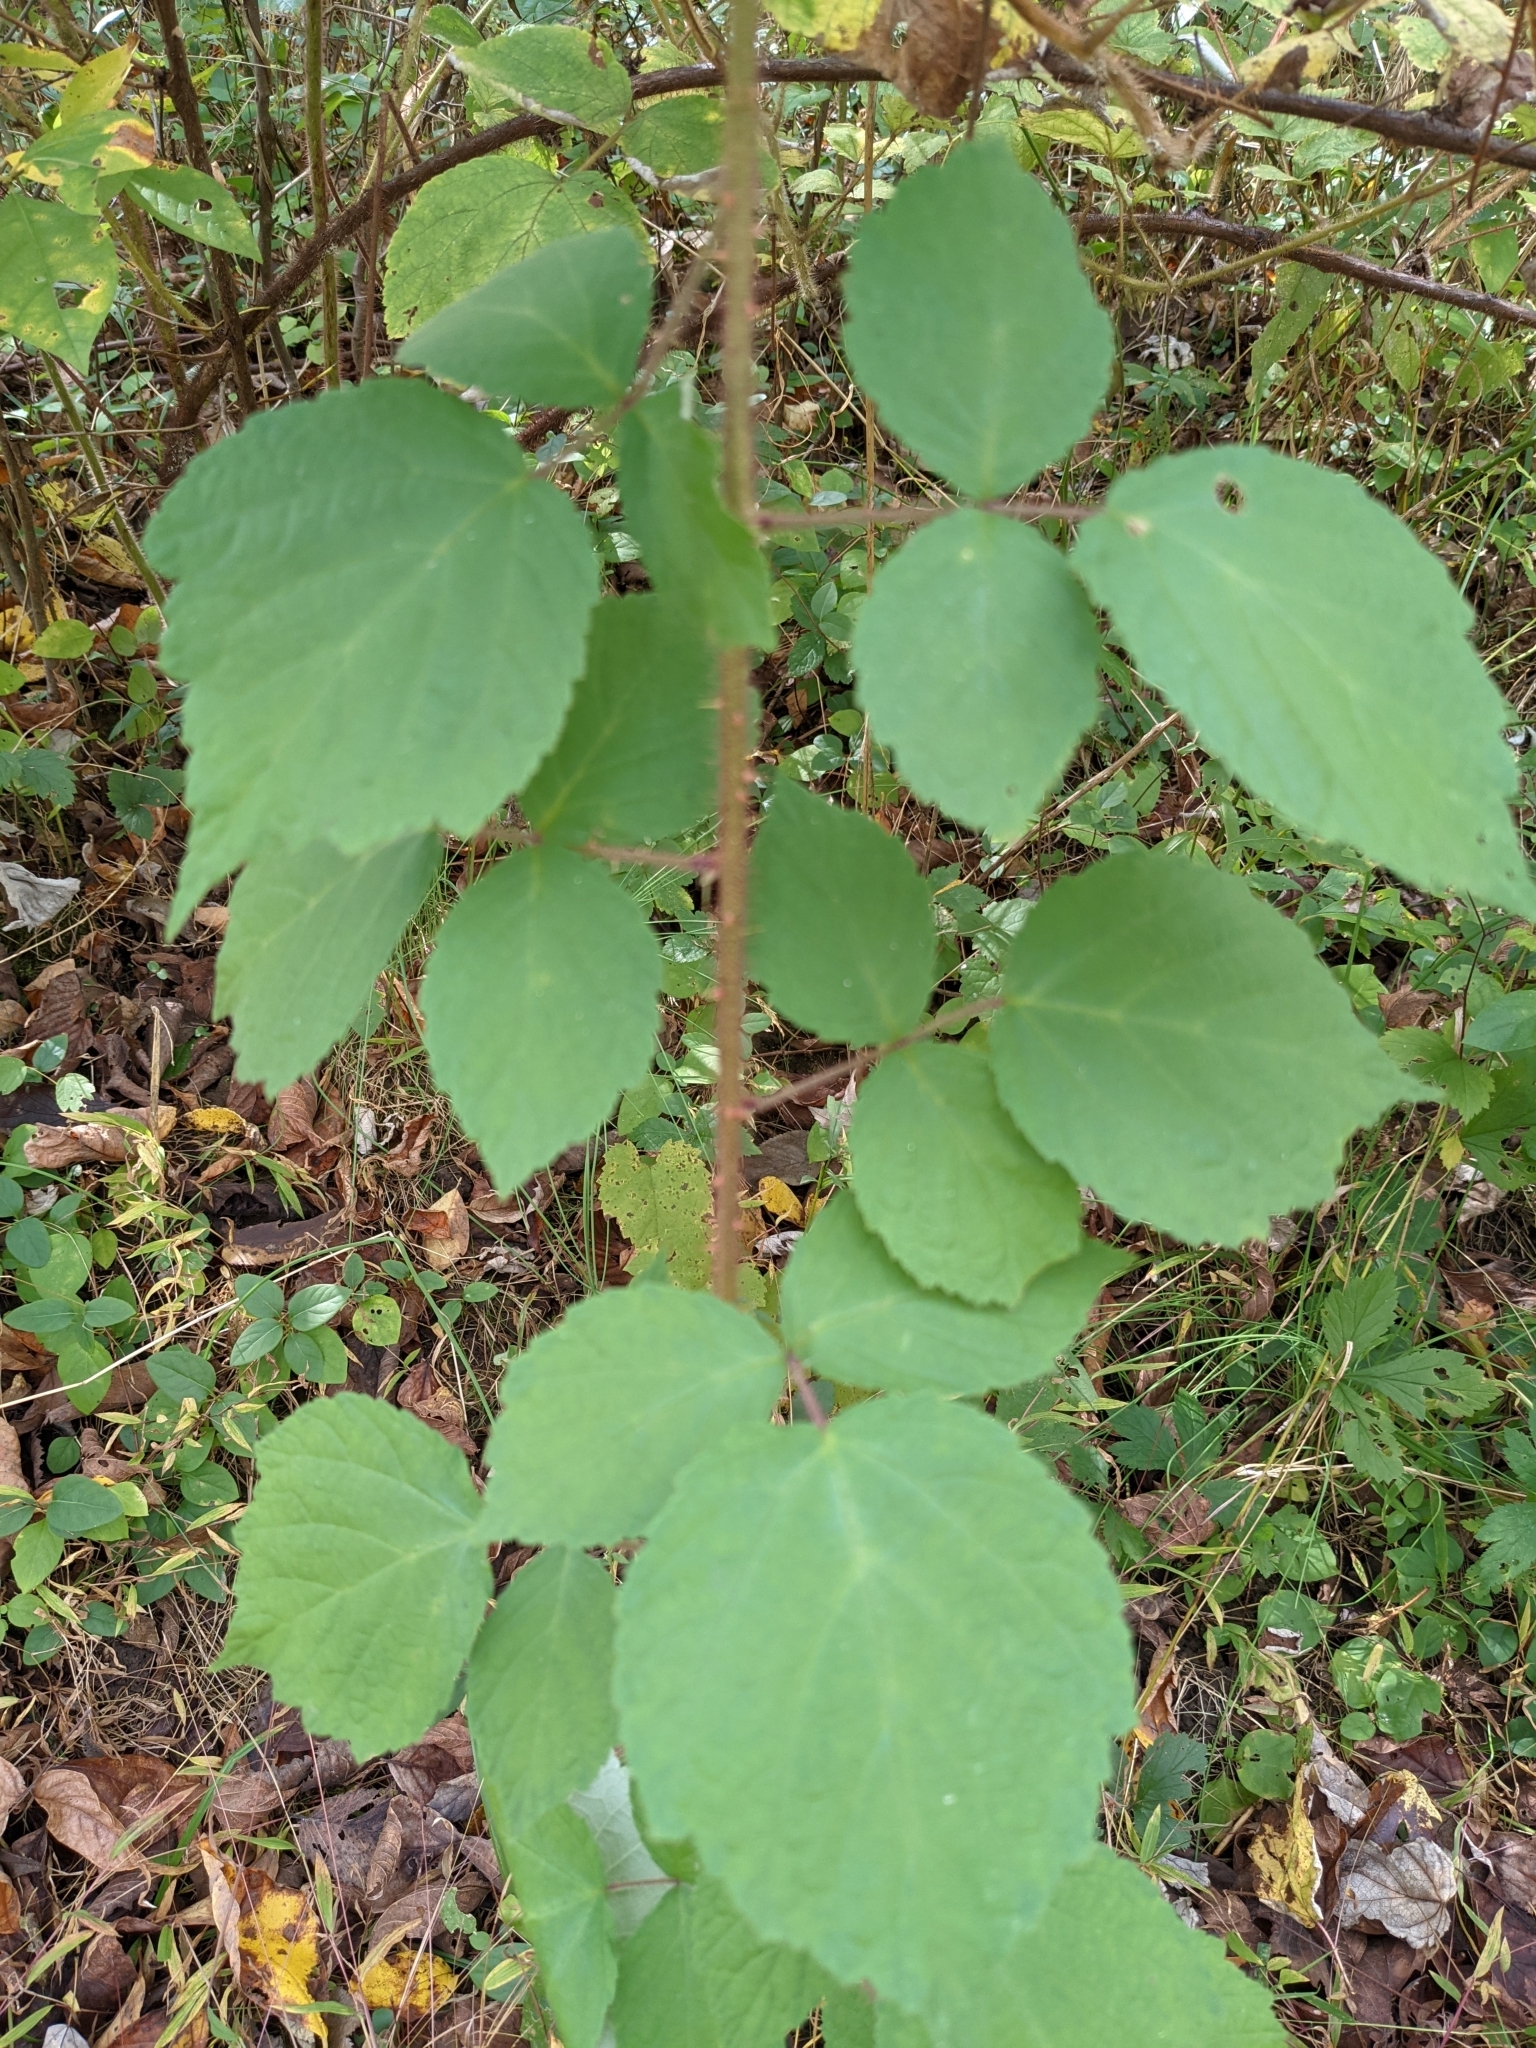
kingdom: Plantae
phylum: Tracheophyta
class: Magnoliopsida
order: Rosales
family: Rosaceae
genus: Rubus
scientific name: Rubus phoenicolasius
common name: Japanese wineberry
